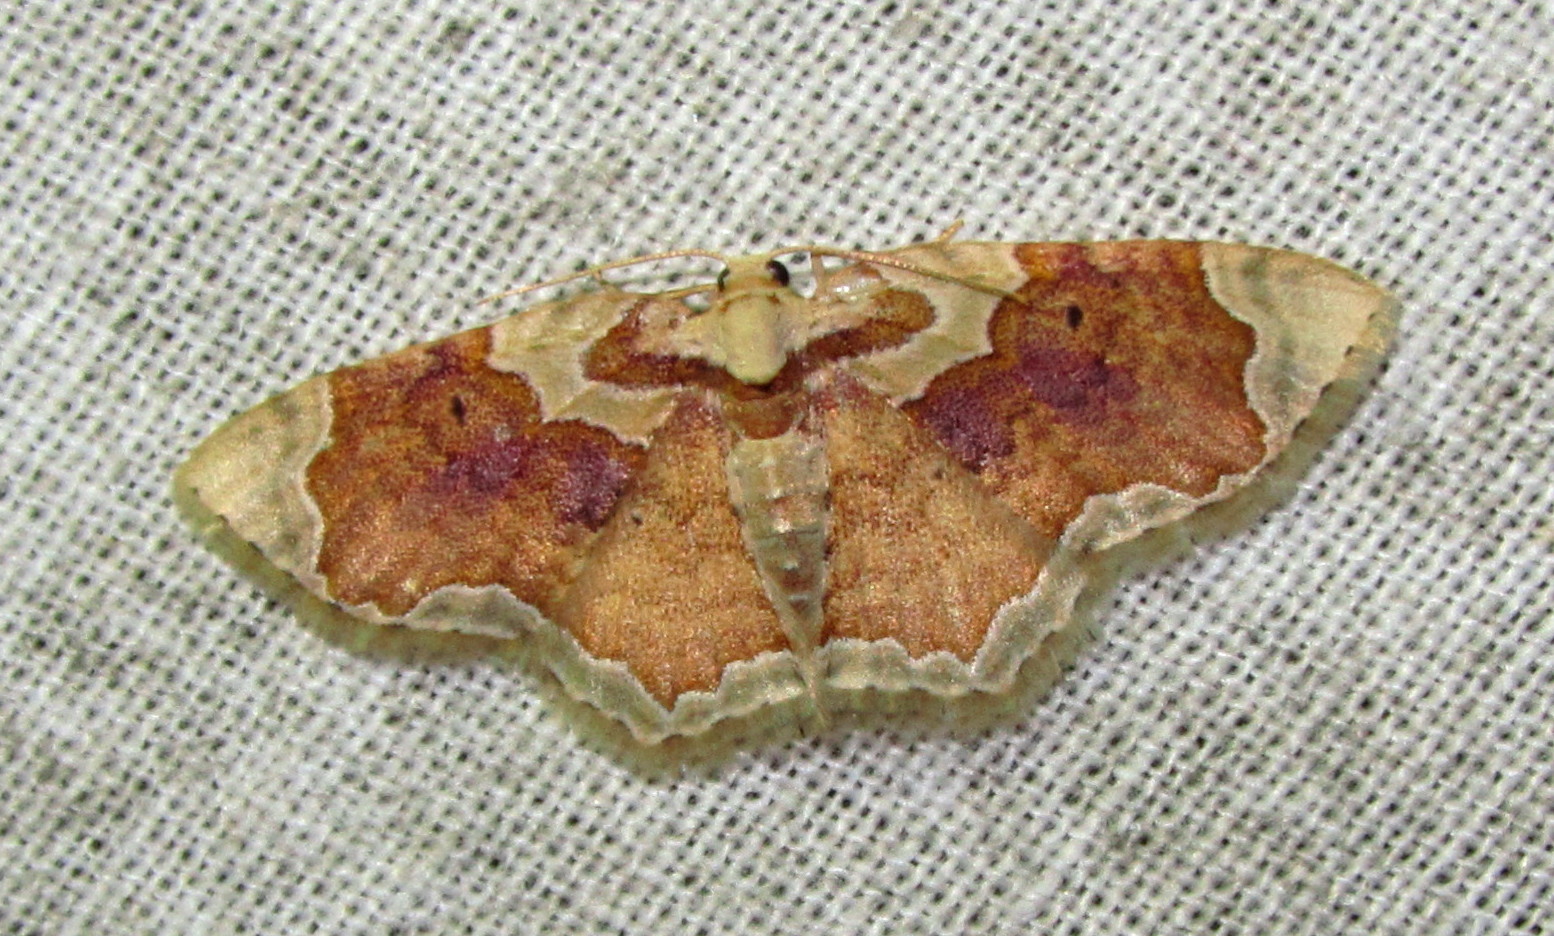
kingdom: Animalia
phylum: Arthropoda
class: Insecta
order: Lepidoptera
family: Geometridae
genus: Palpoctenidia
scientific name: Palpoctenidia phoenicosoma
